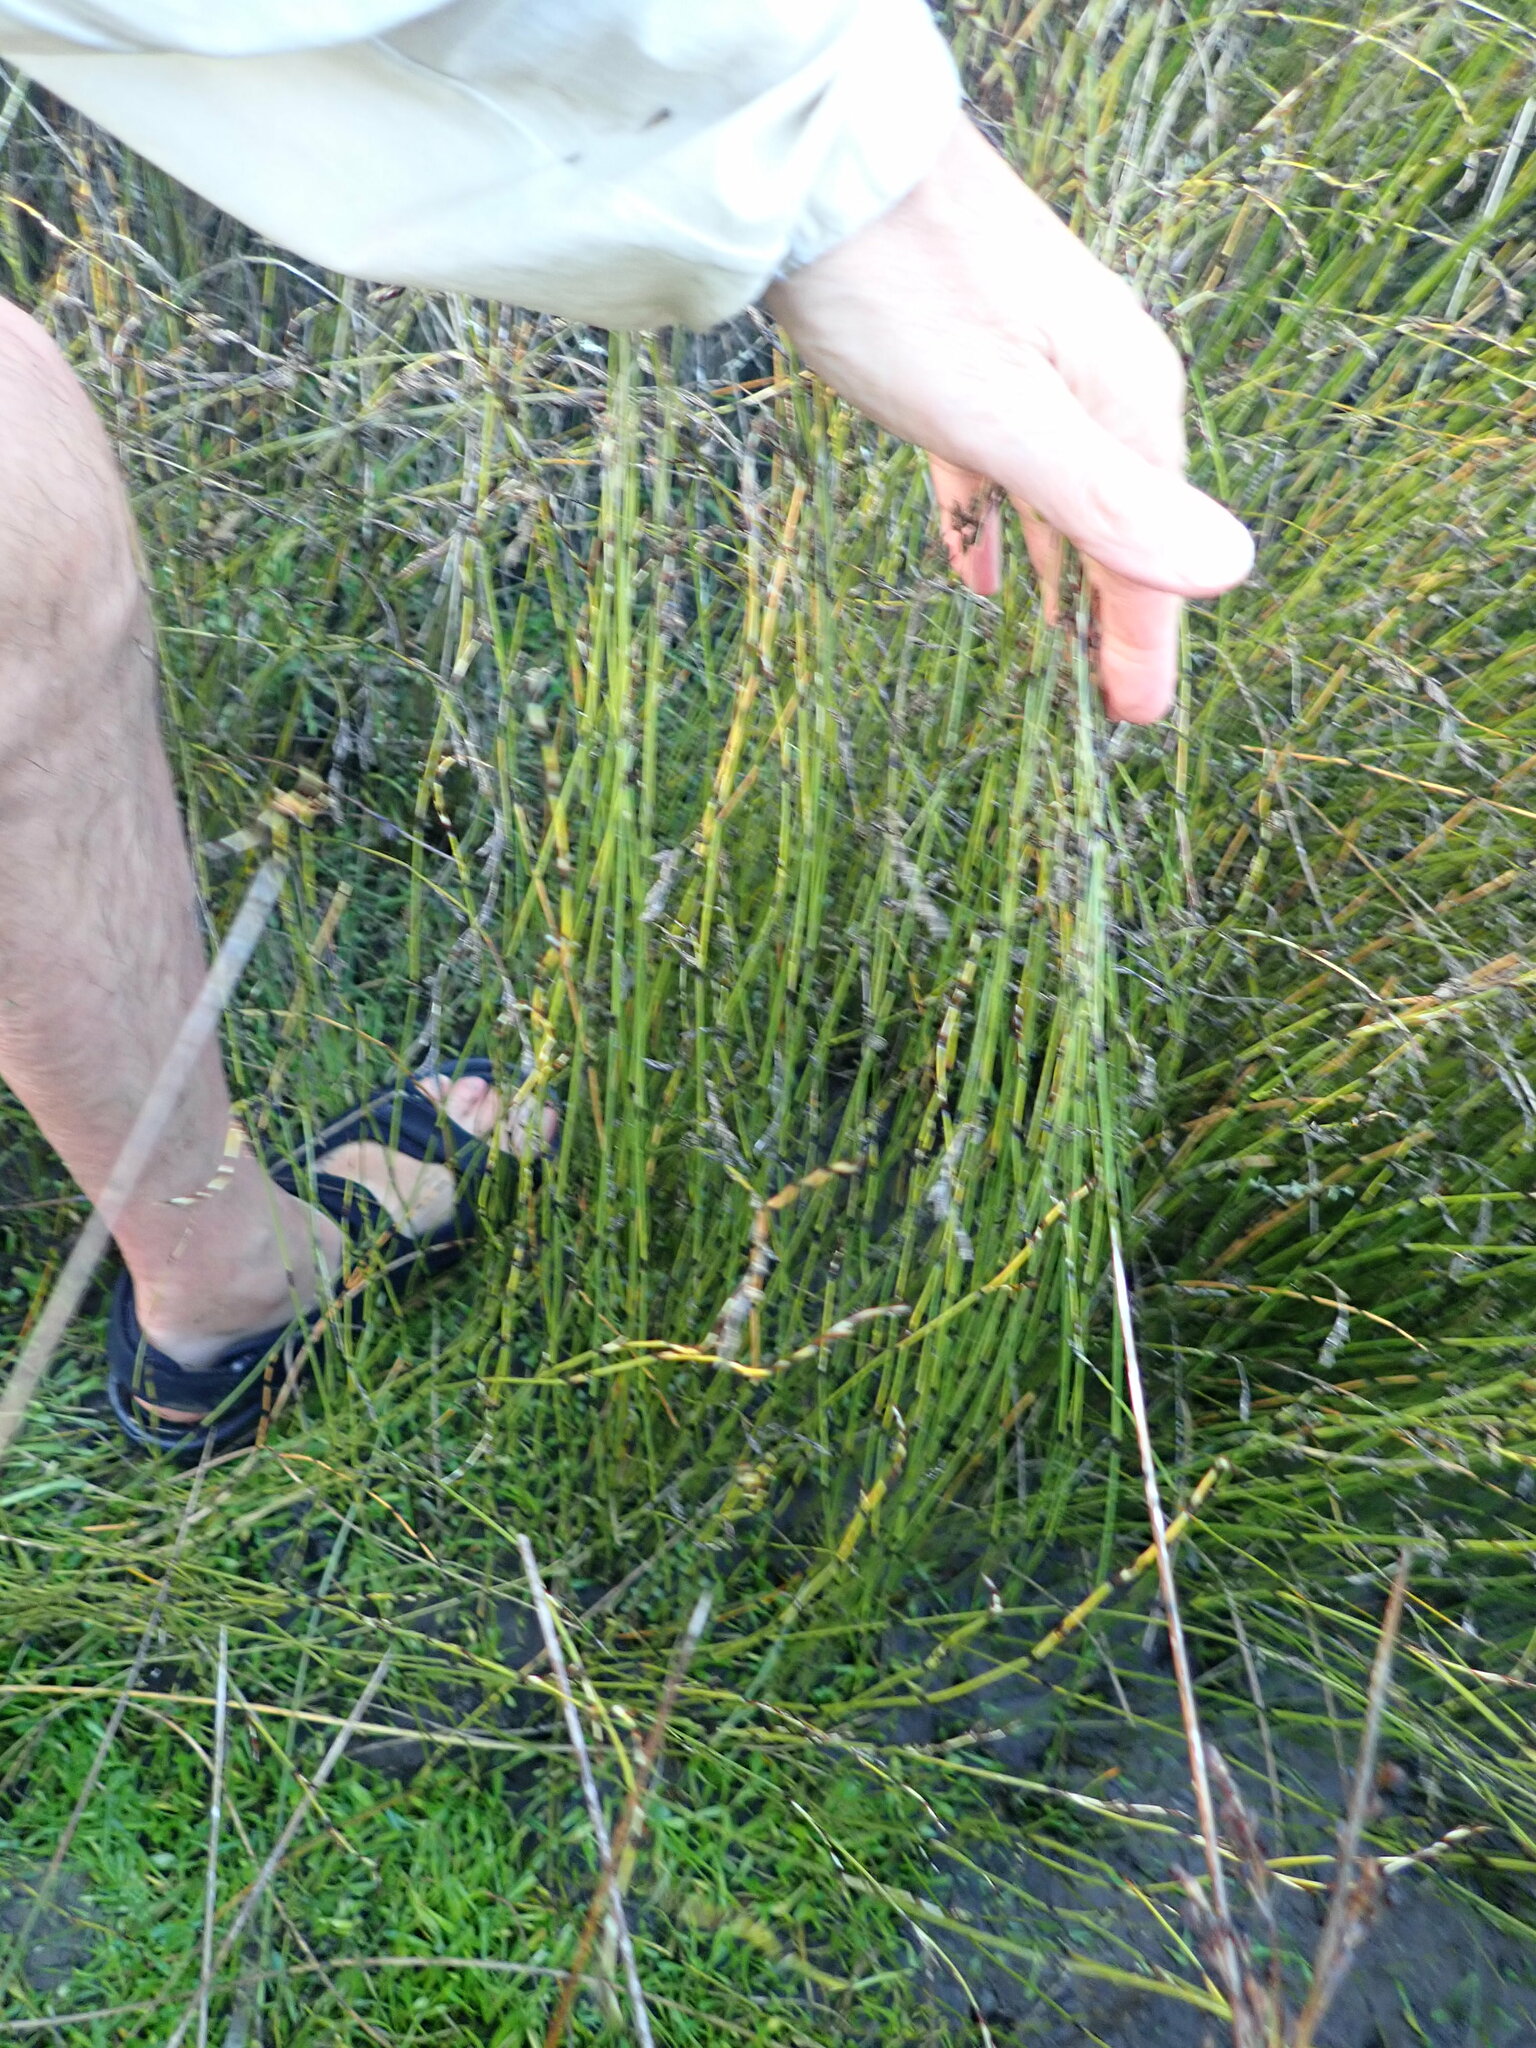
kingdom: Plantae
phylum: Tracheophyta
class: Liliopsida
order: Poales
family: Restionaceae
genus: Apodasmia
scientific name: Apodasmia similis
